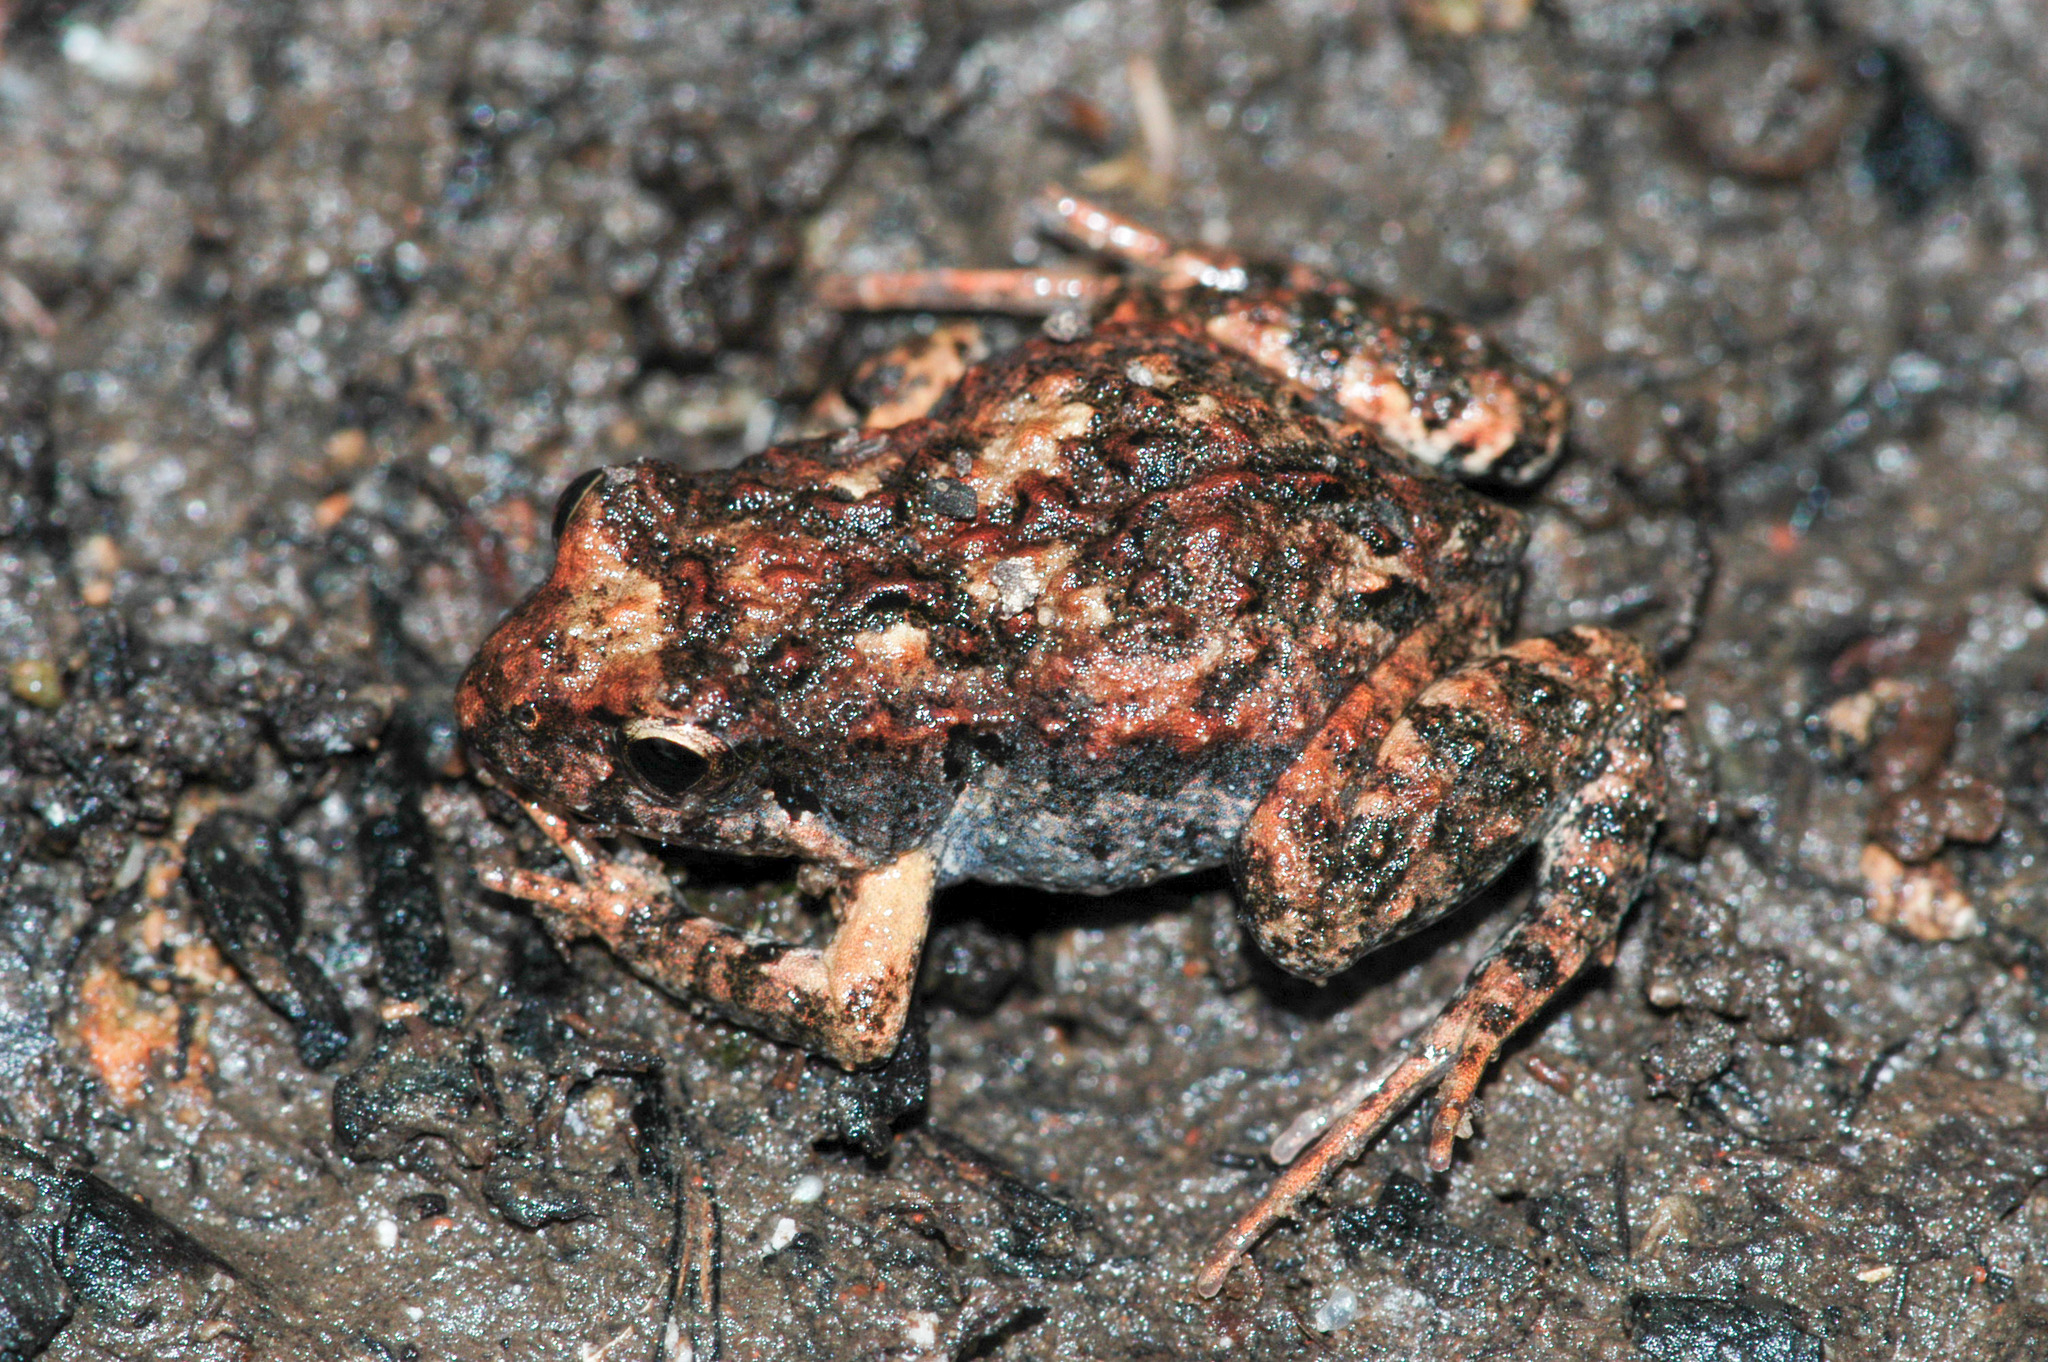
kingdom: Animalia
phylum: Chordata
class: Amphibia
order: Anura
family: Myobatrachidae
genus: Crinia
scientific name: Crinia signifera
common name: Brown froglet
